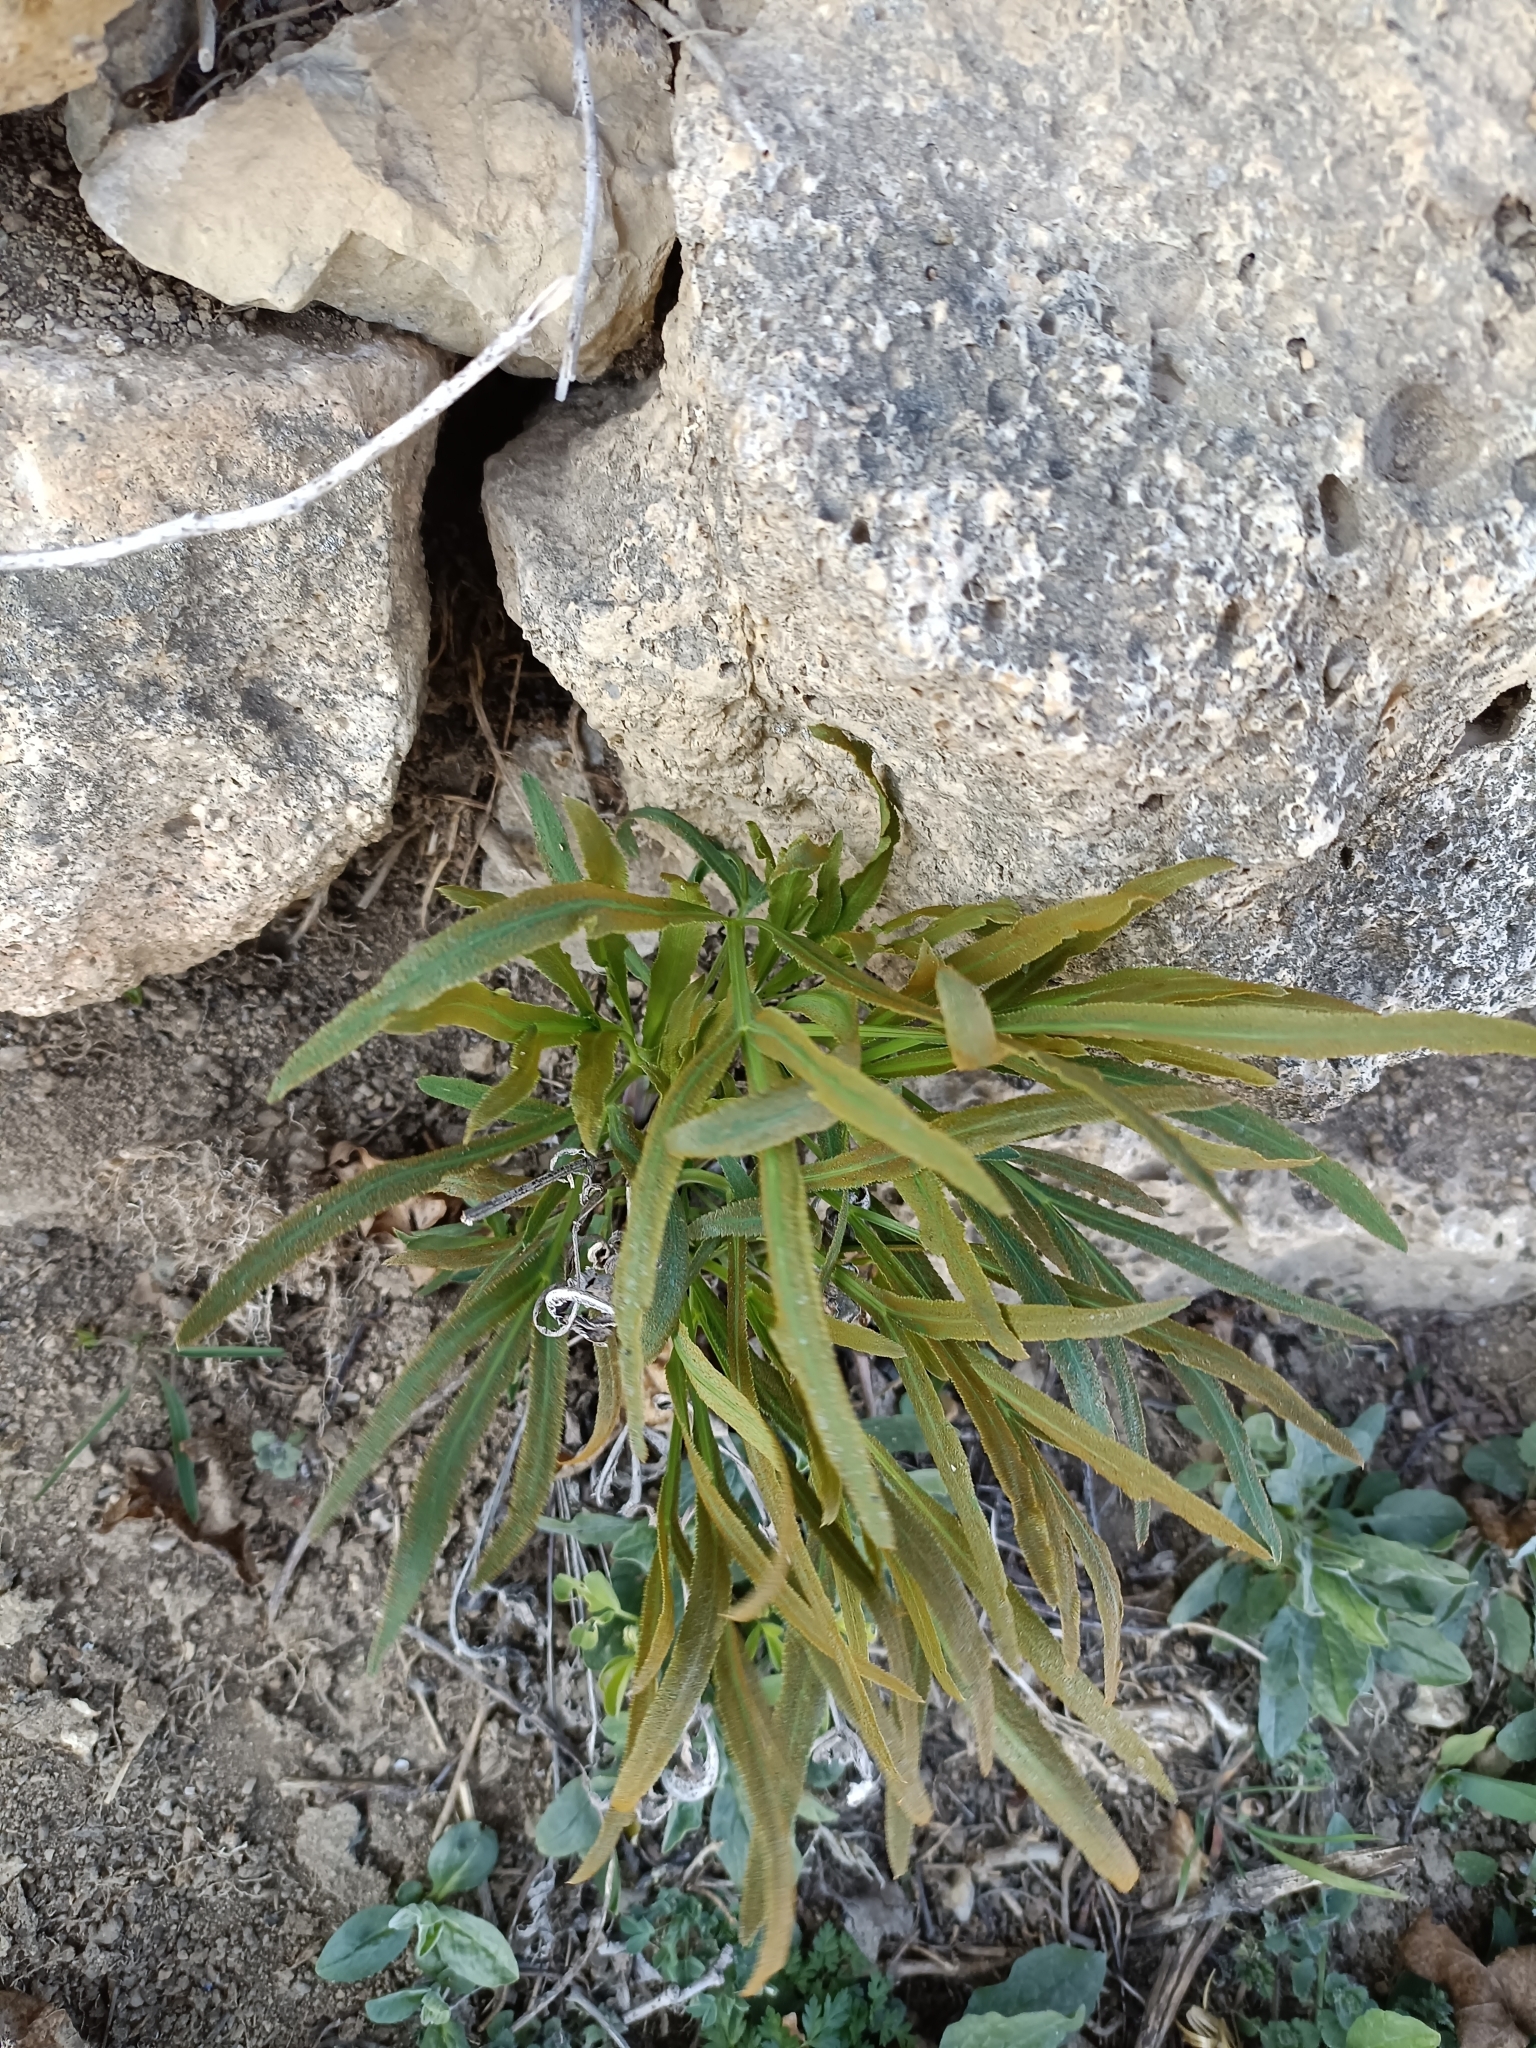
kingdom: Plantae
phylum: Tracheophyta
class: Magnoliopsida
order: Apiales
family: Apiaceae
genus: Falcaria
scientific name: Falcaria vulgaris
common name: Longleaf
